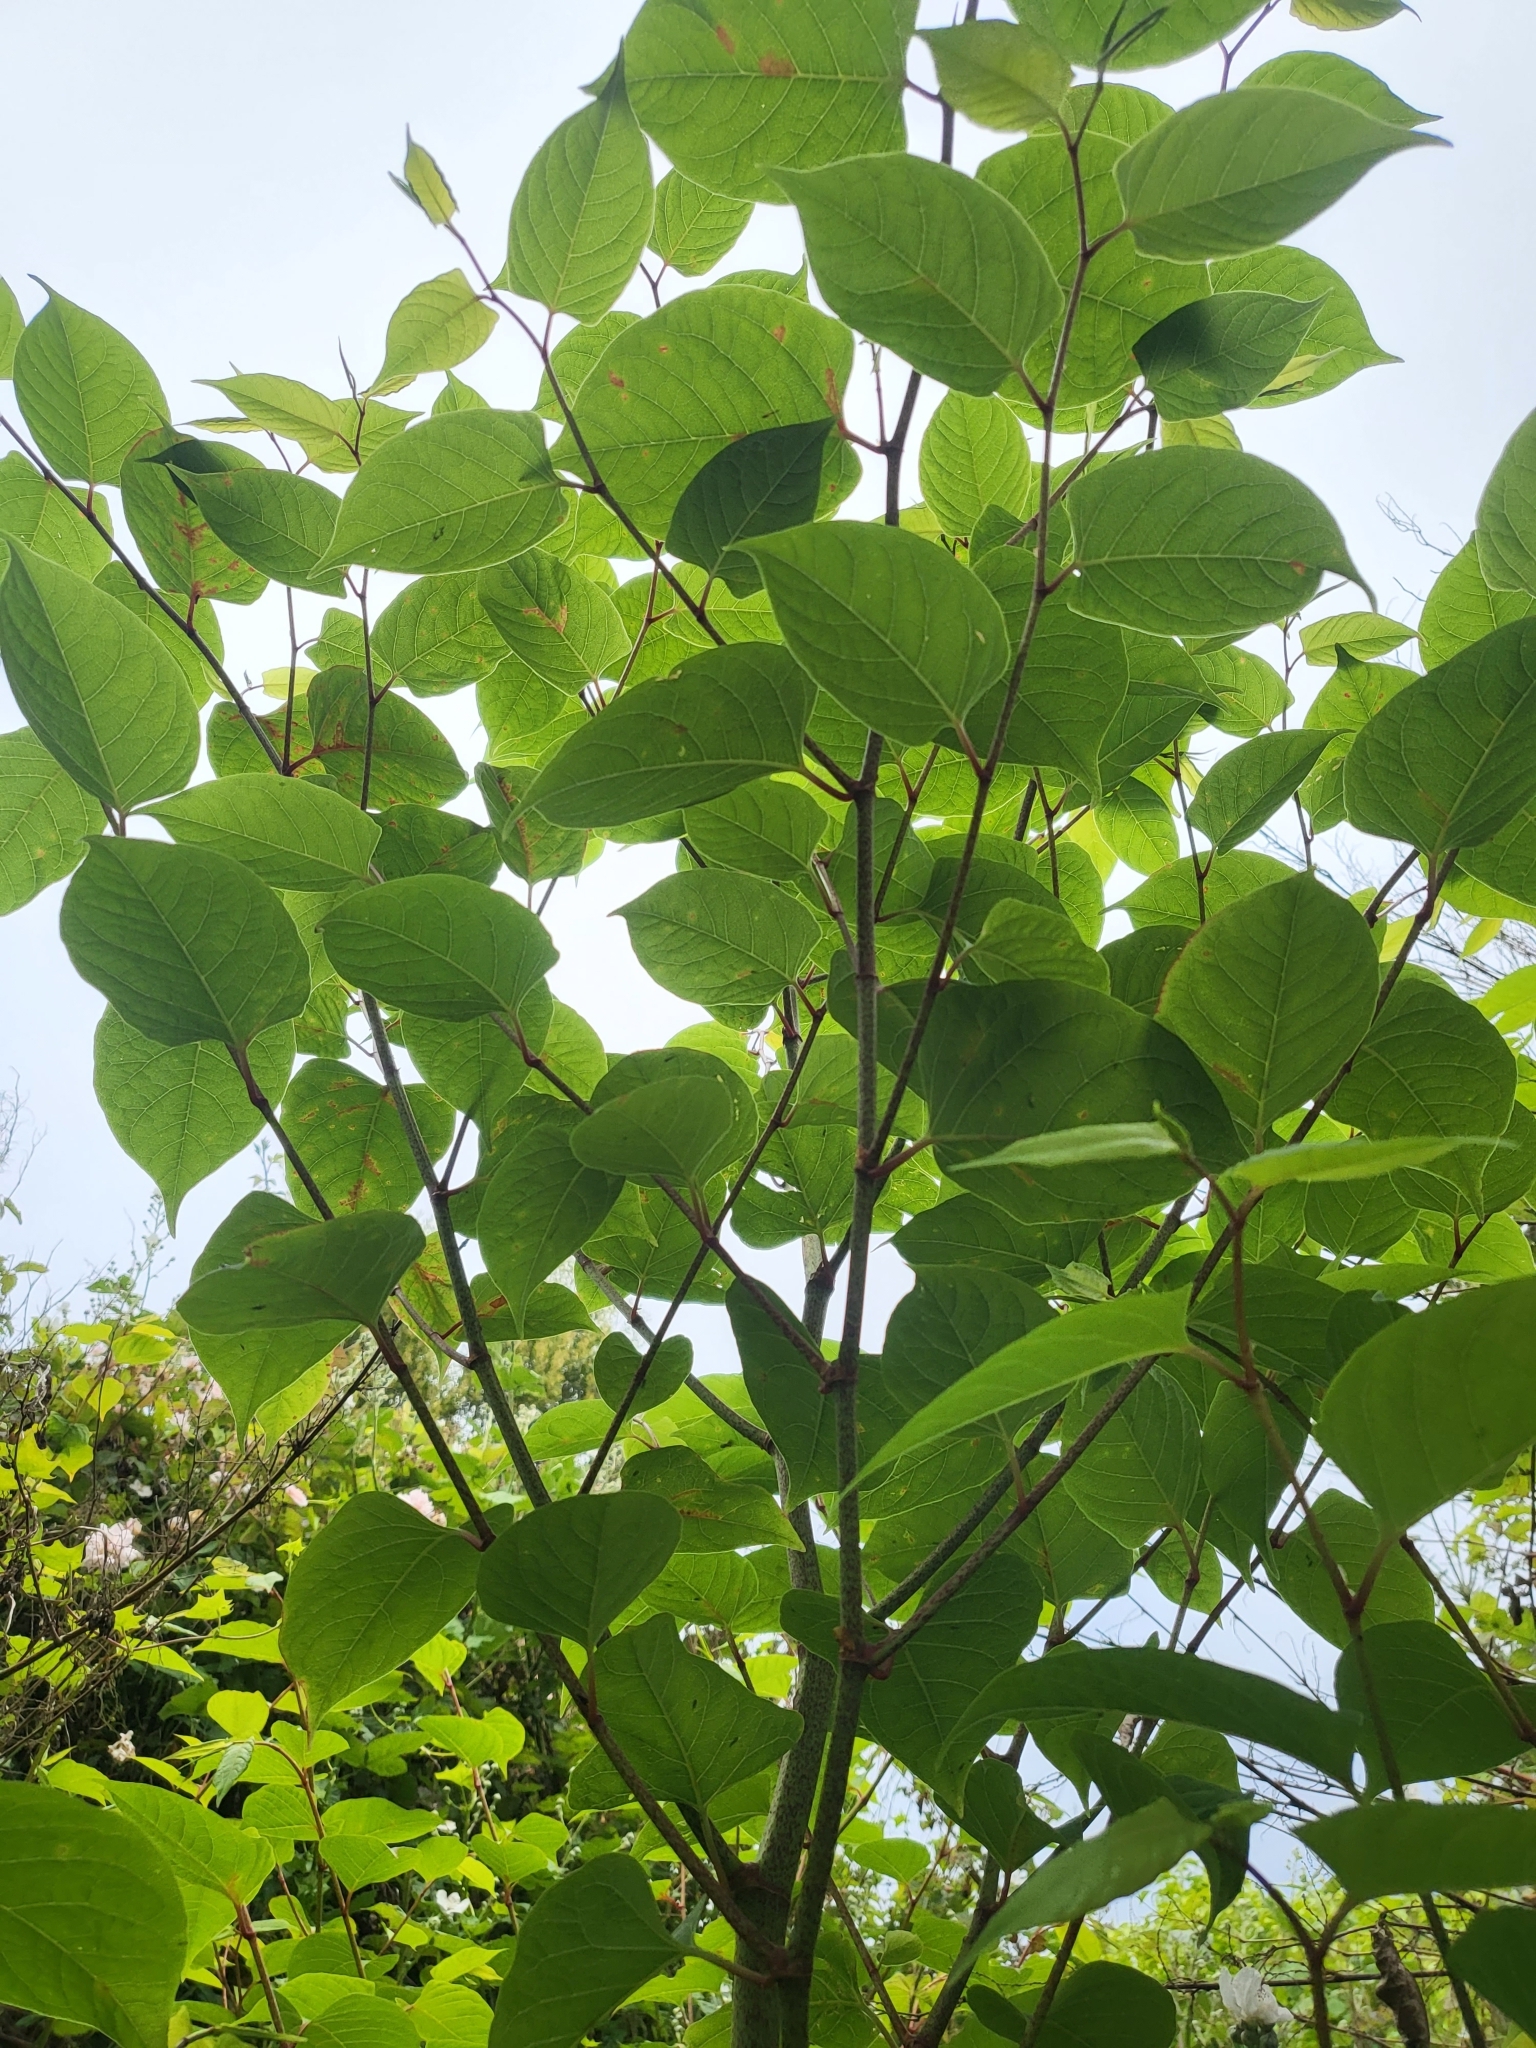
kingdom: Plantae
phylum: Tracheophyta
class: Magnoliopsida
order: Caryophyllales
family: Polygonaceae
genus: Reynoutria
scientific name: Reynoutria japonica
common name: Japanese knotweed
